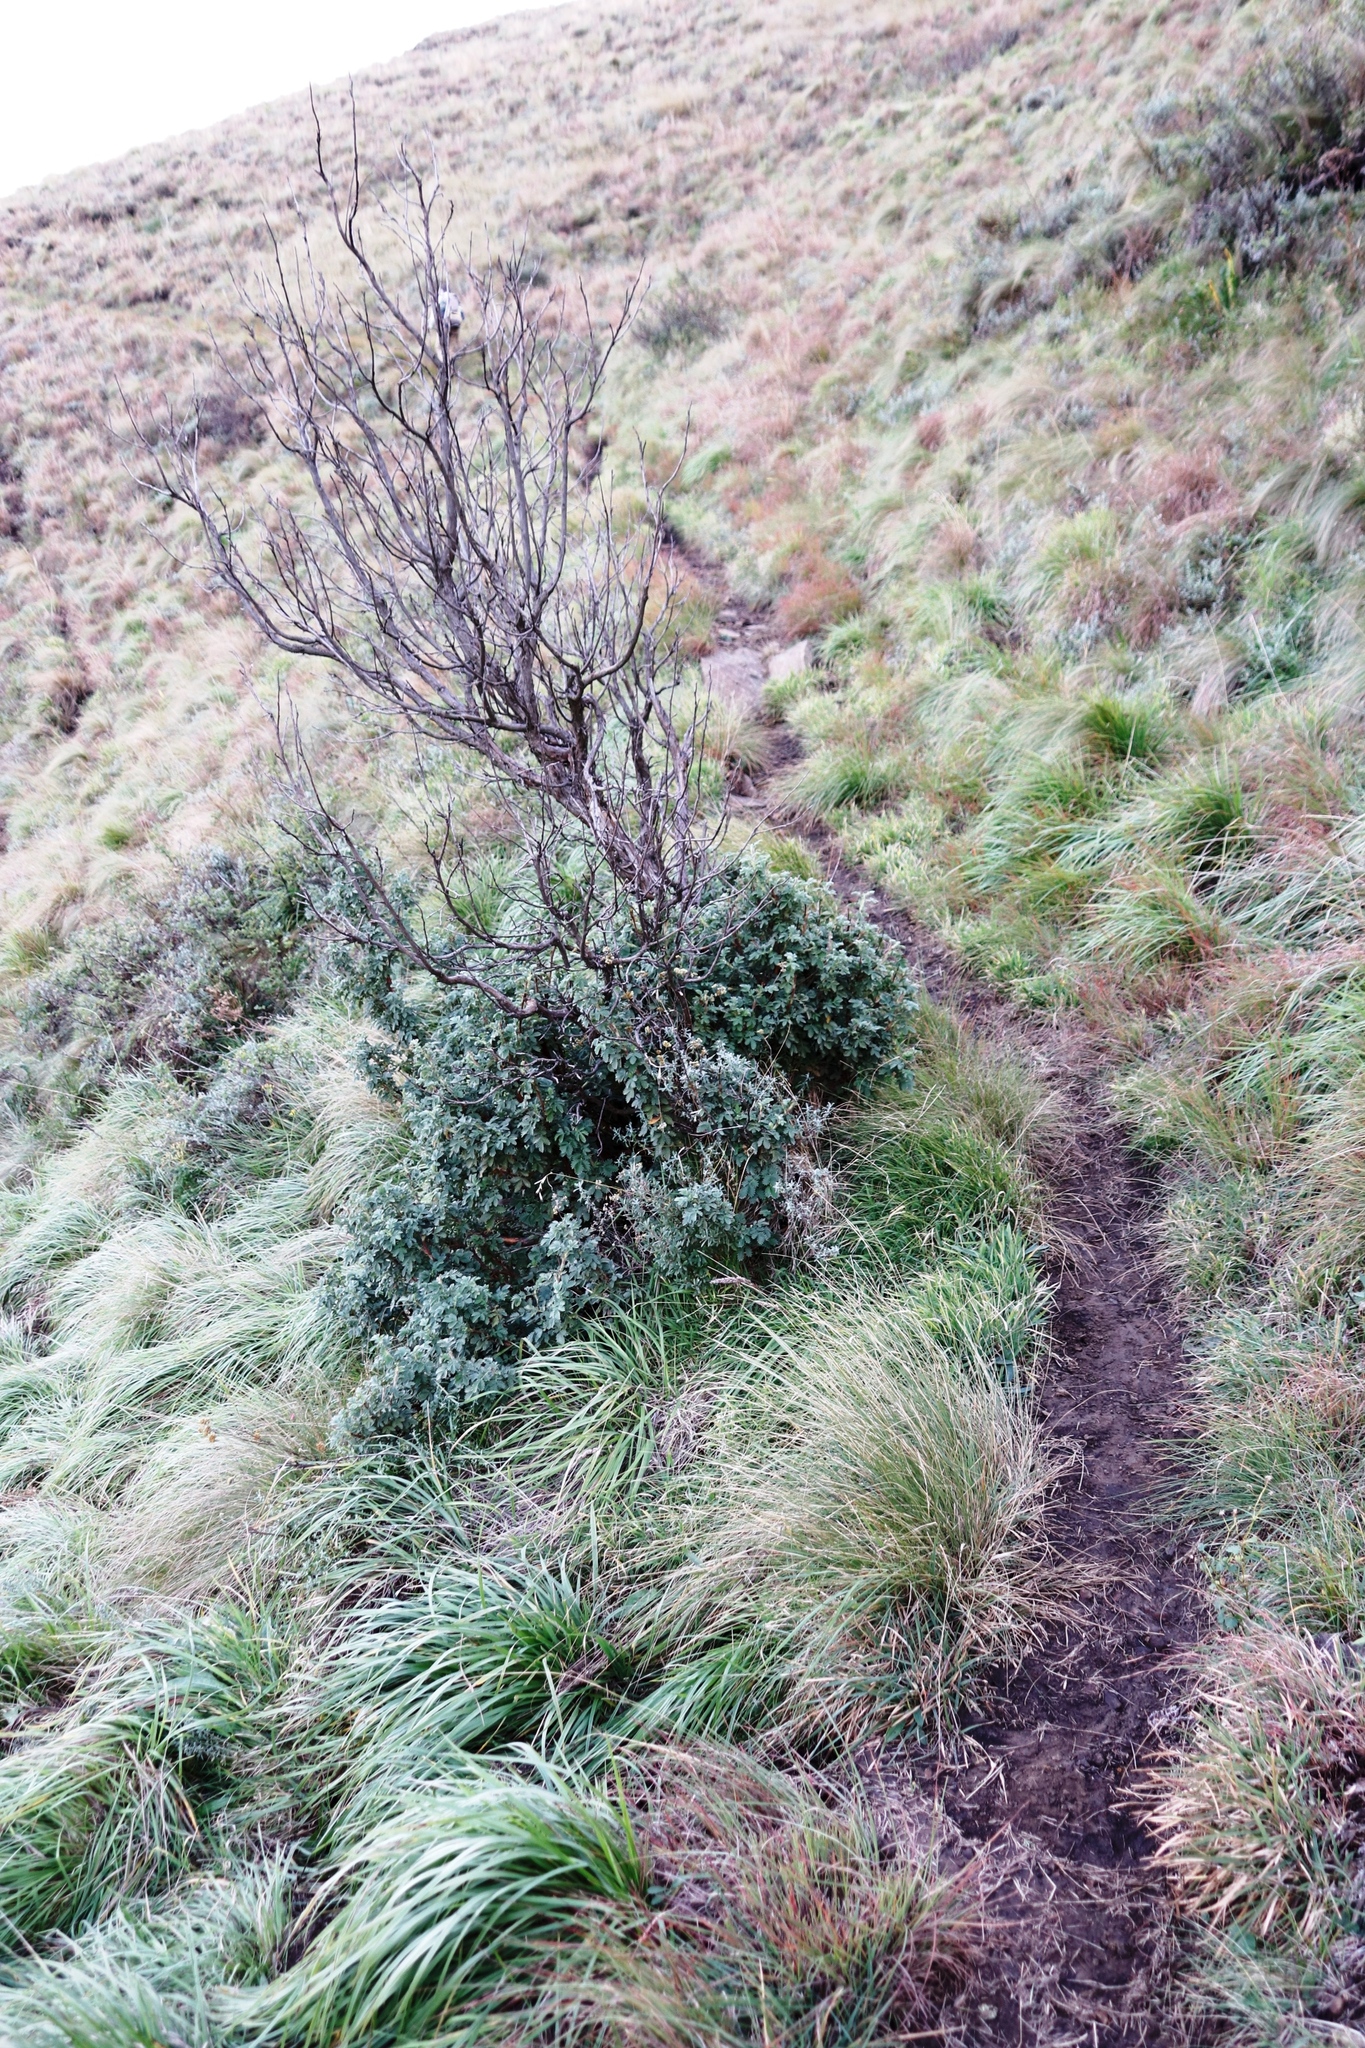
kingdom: Plantae
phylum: Tracheophyta
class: Magnoliopsida
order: Rosales
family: Rosaceae
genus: Leucosidea
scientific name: Leucosidea sericea
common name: Oldwood
